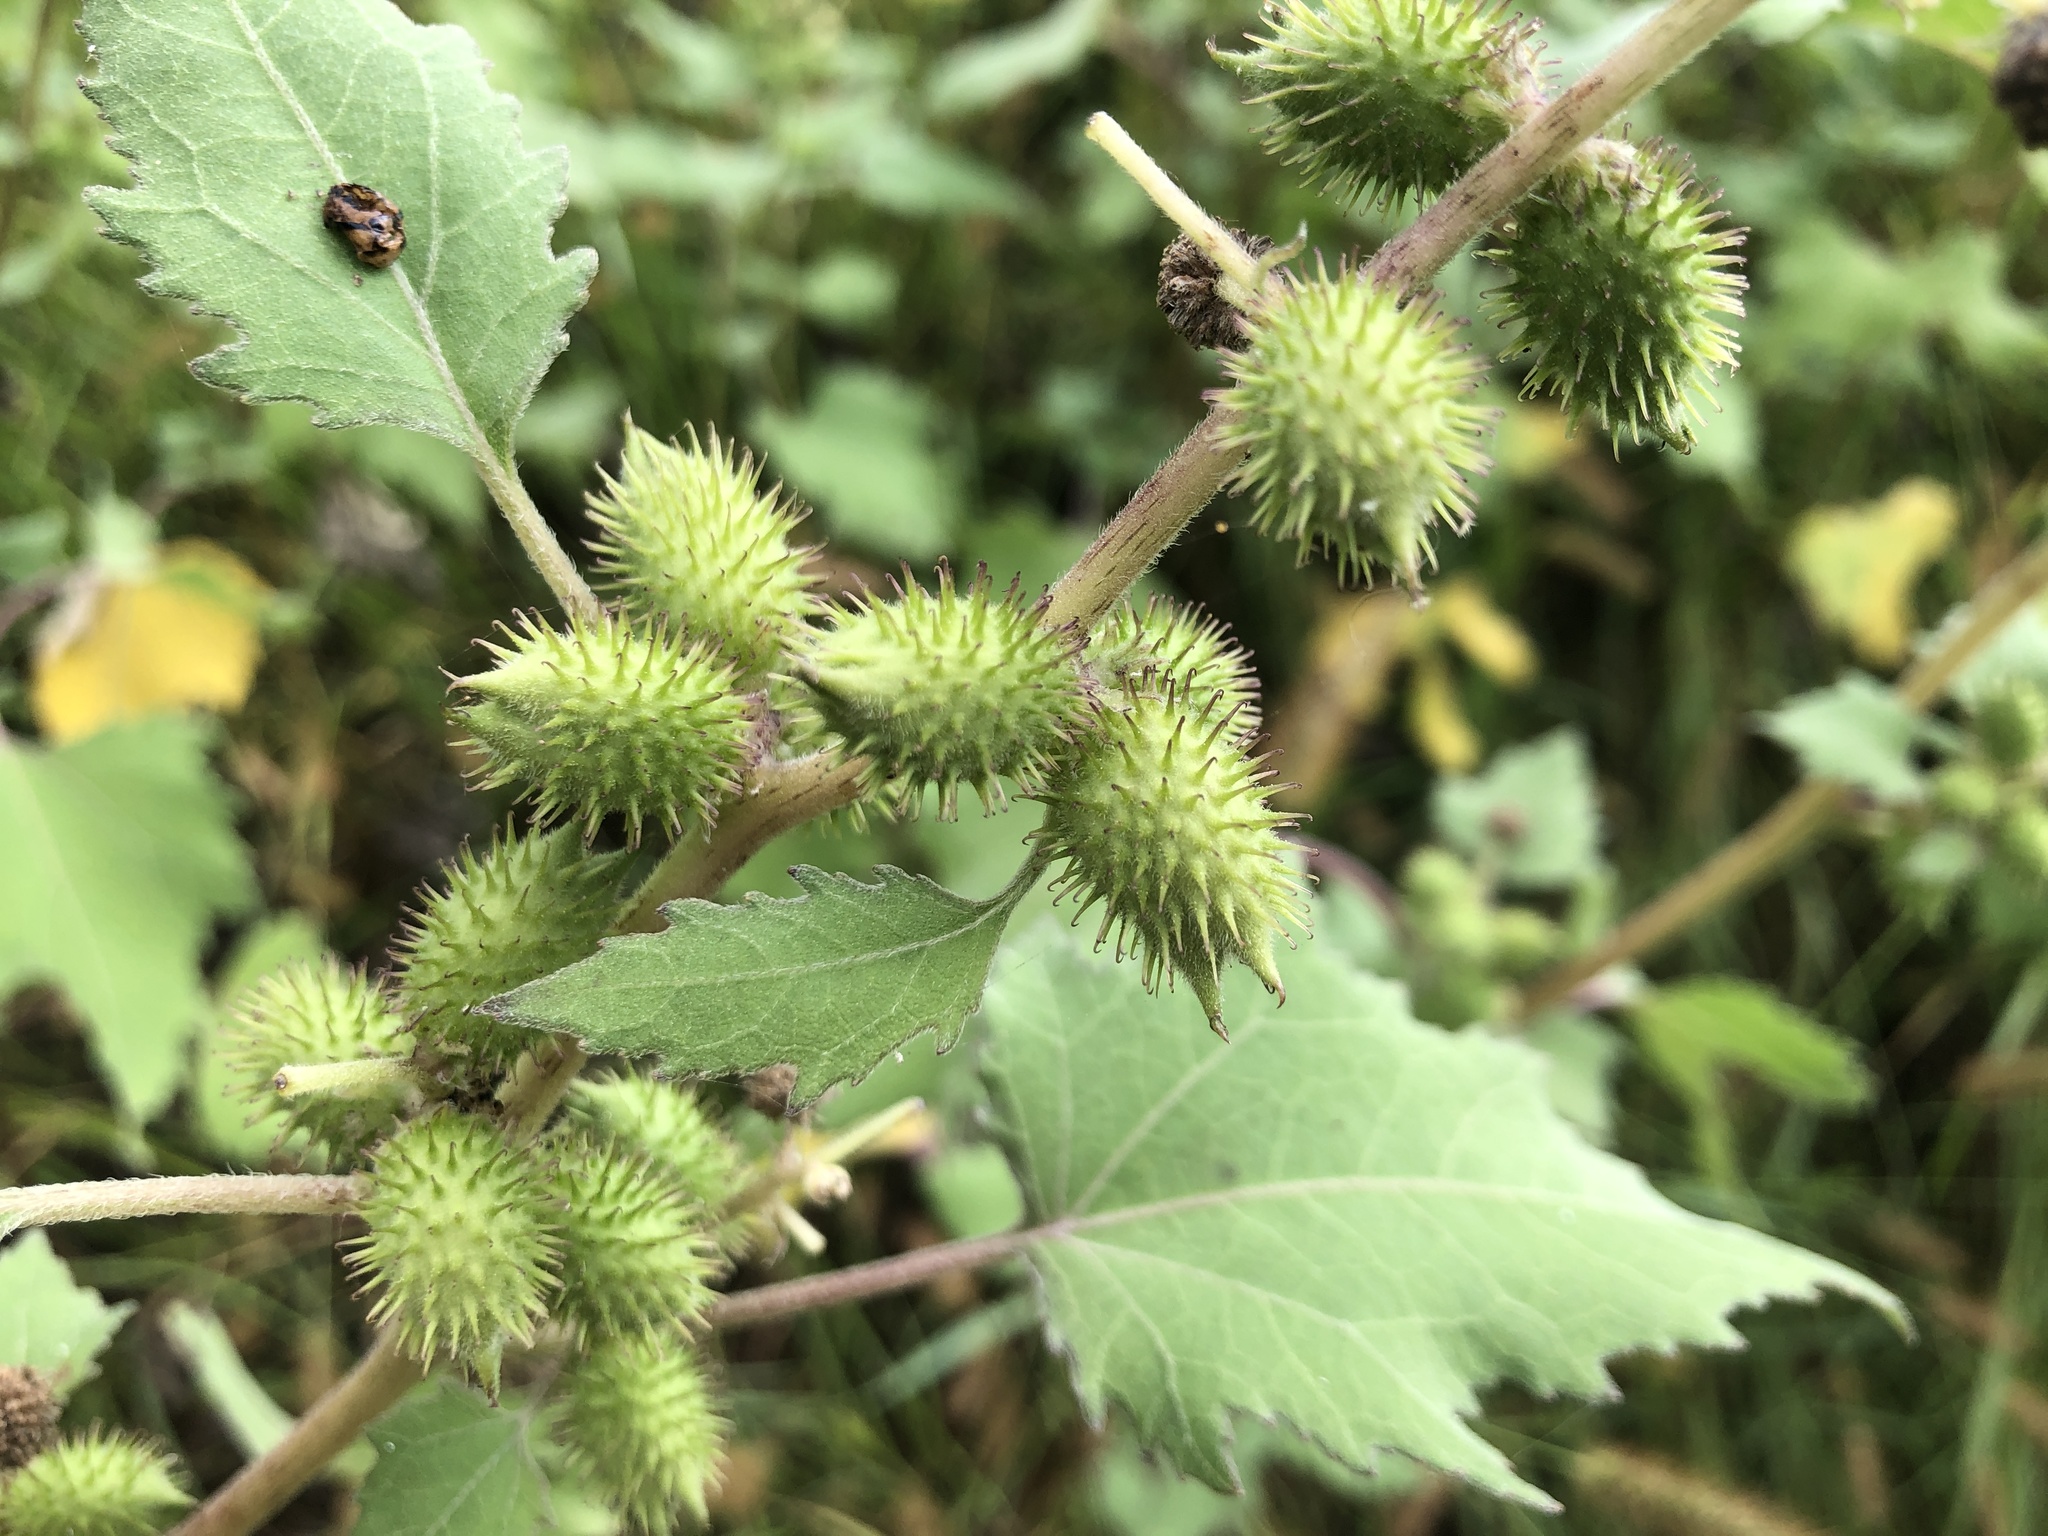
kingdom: Plantae
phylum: Tracheophyta
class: Magnoliopsida
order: Asterales
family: Asteraceae
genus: Xanthium
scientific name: Xanthium strumarium
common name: Rough cocklebur
